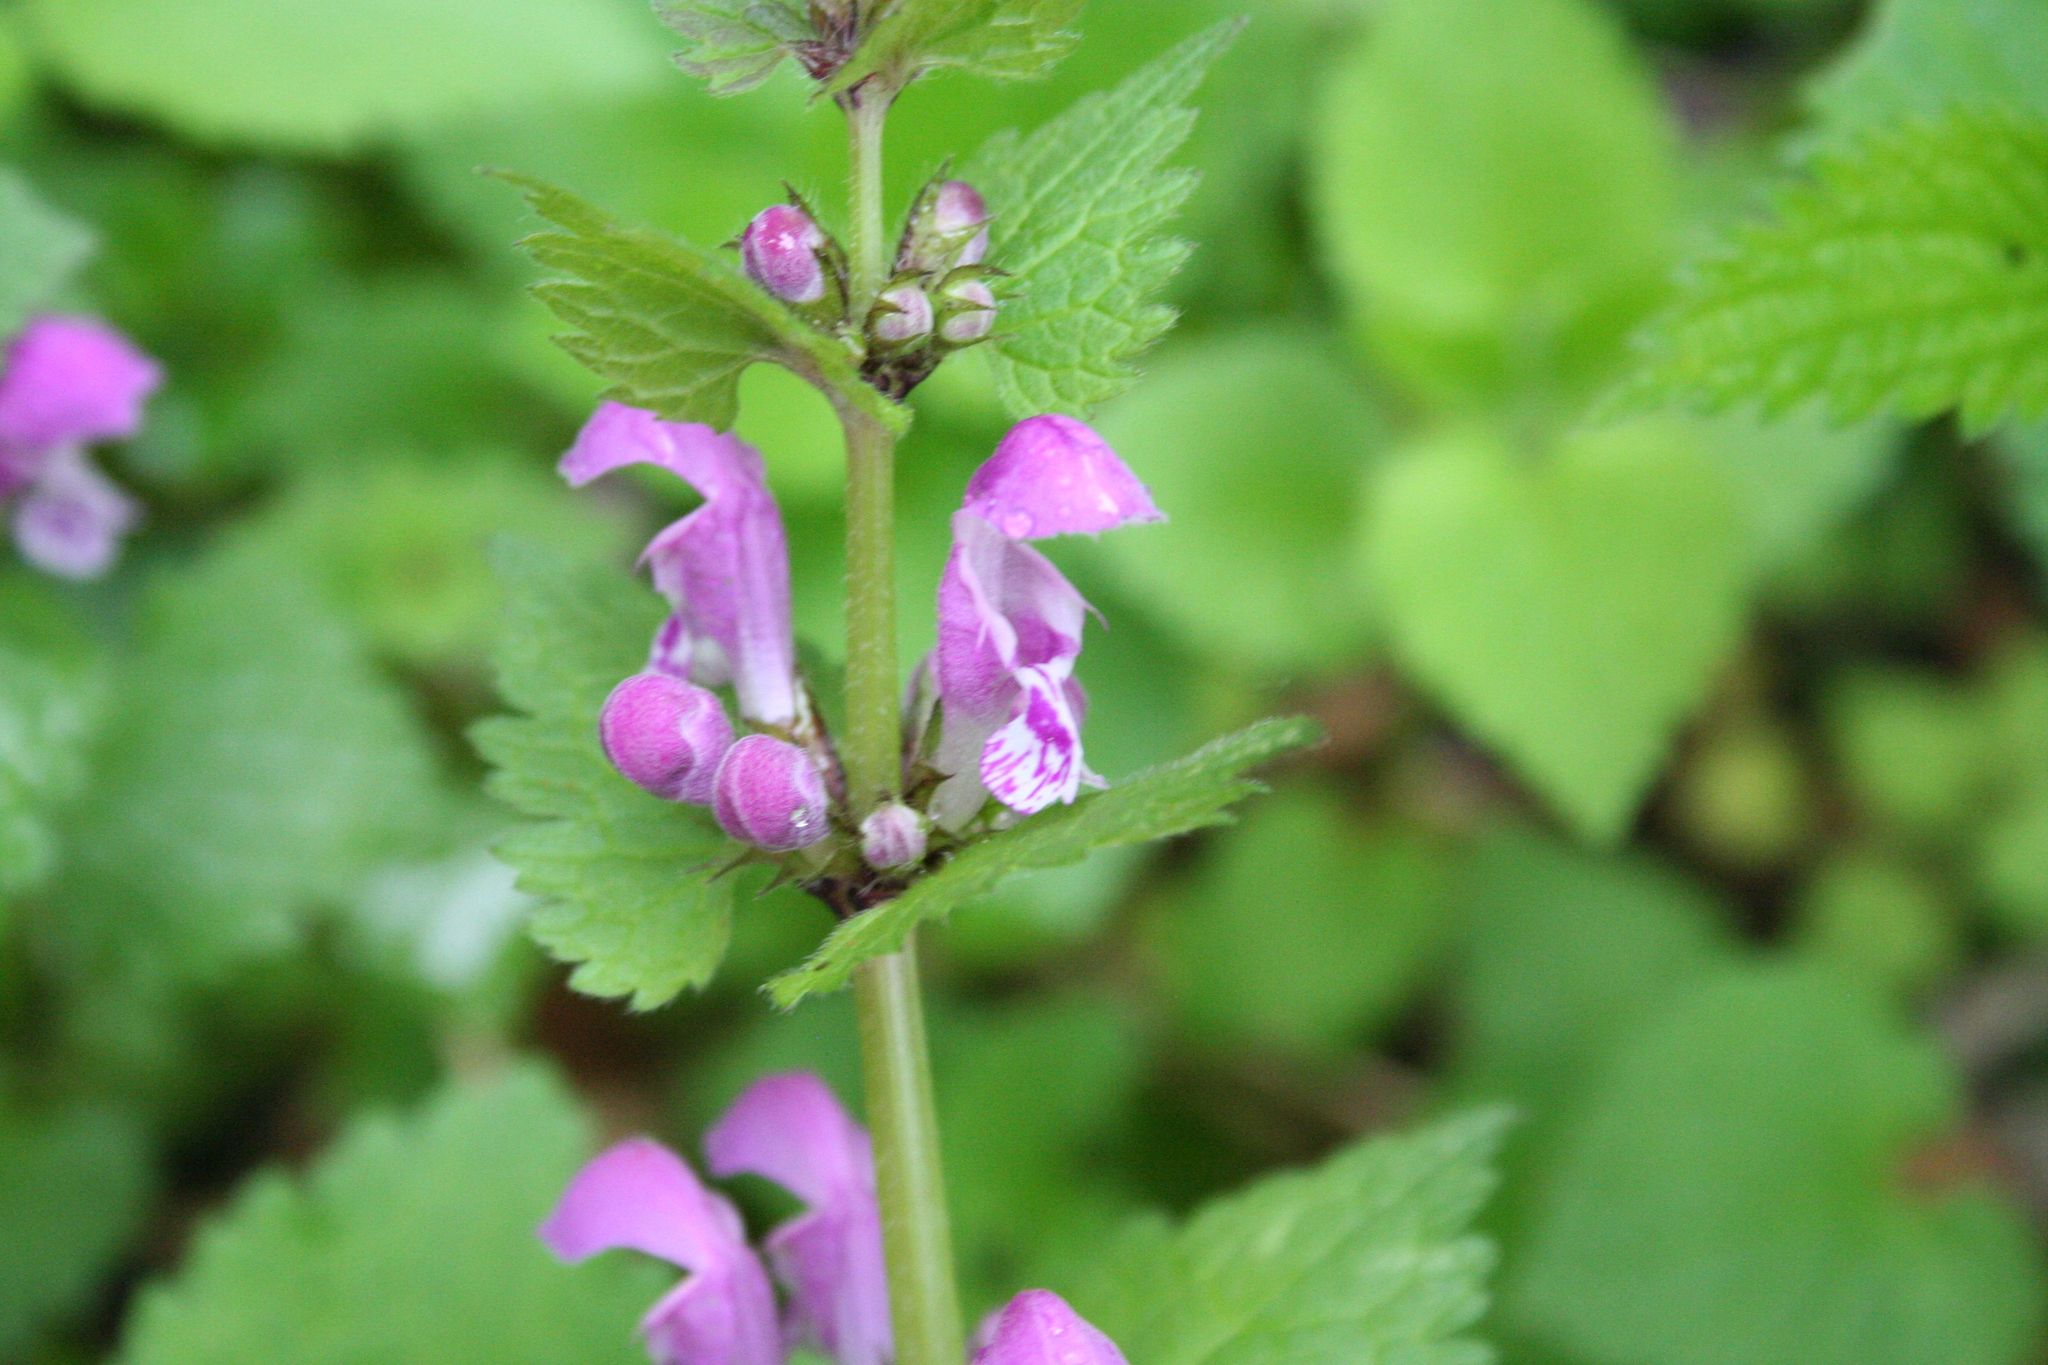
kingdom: Plantae
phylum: Tracheophyta
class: Magnoliopsida
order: Lamiales
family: Lamiaceae
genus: Lamium
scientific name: Lamium maculatum
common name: Spotted dead-nettle
